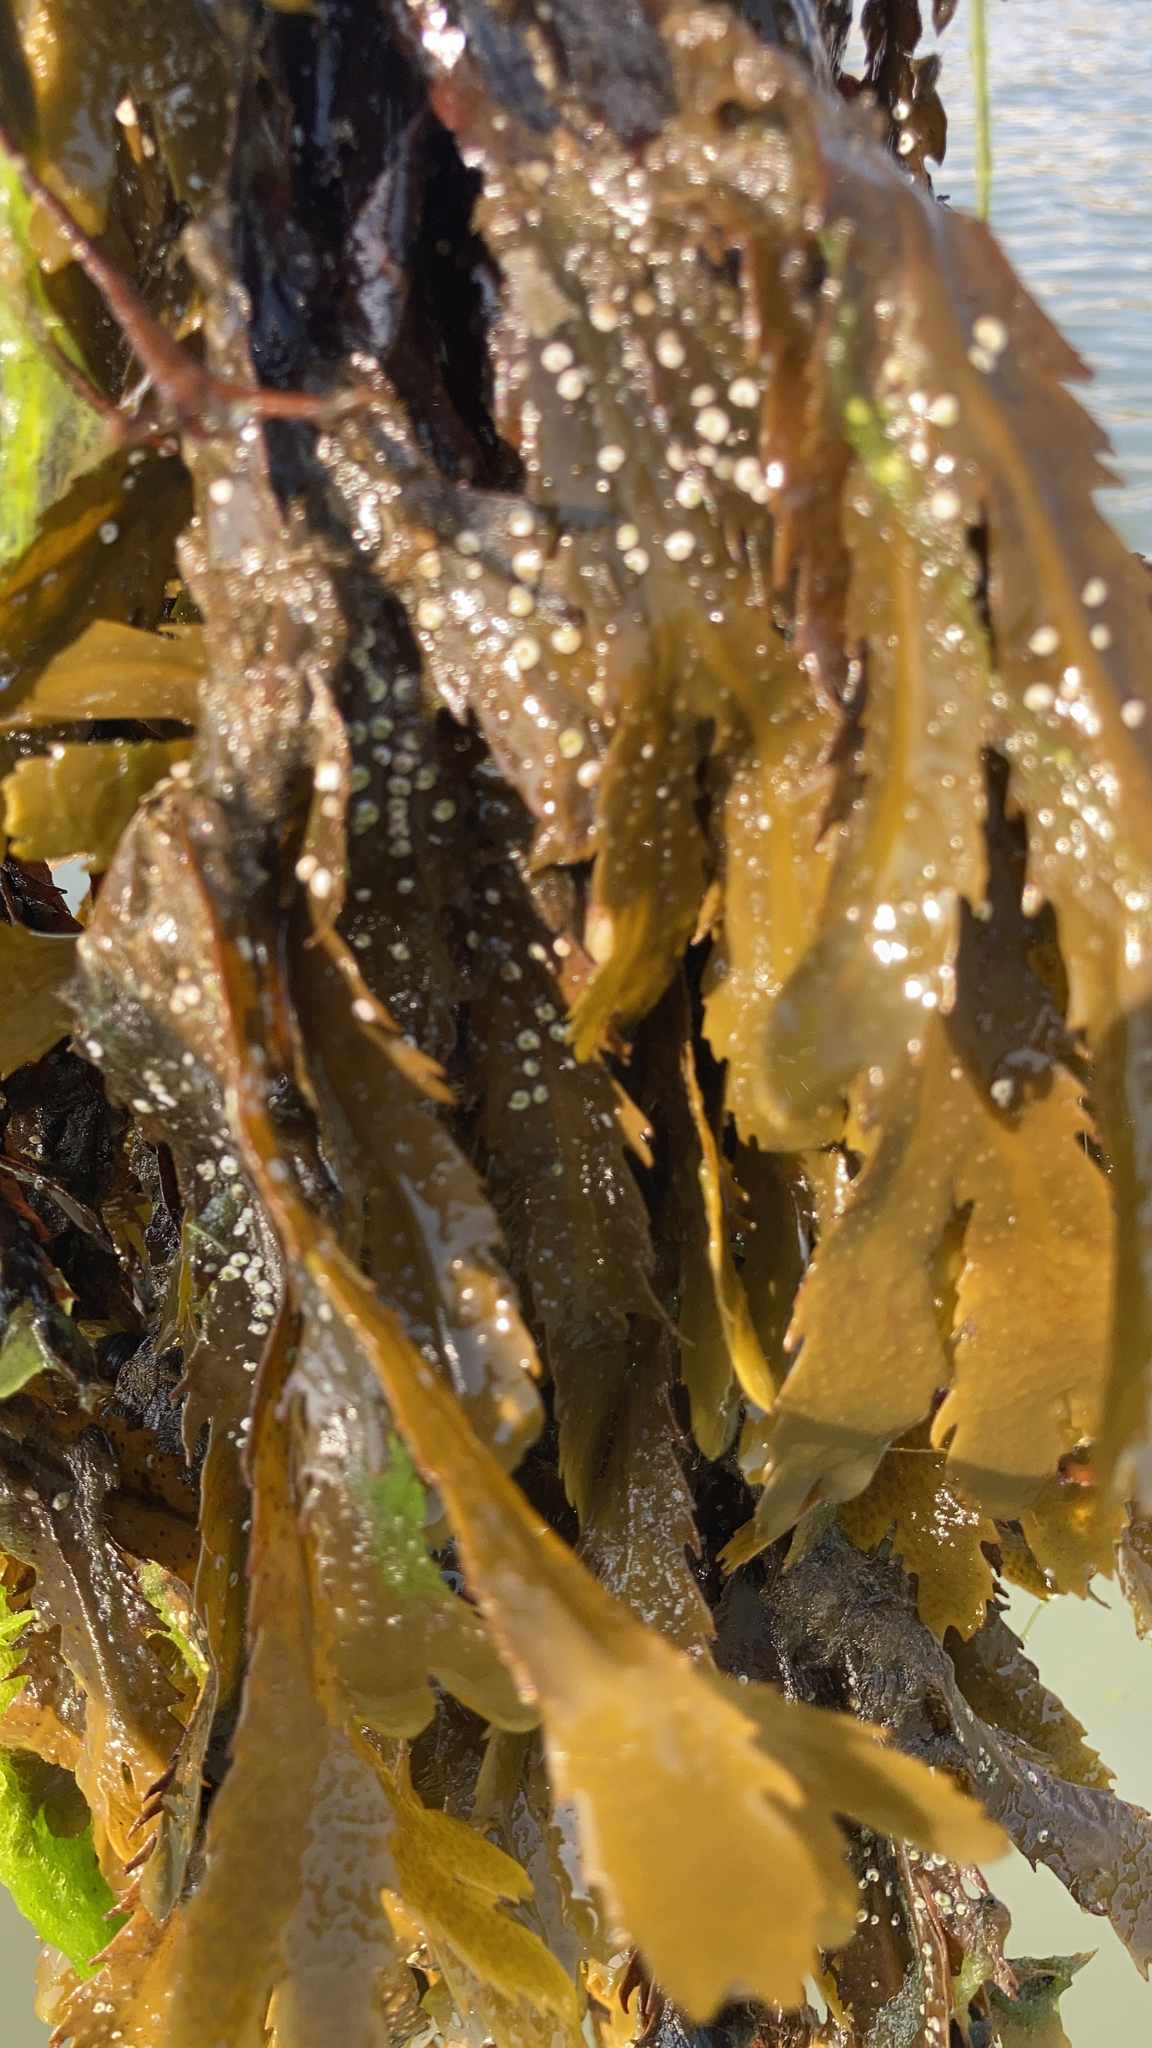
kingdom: Chromista
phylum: Ochrophyta
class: Phaeophyceae
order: Fucales
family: Fucaceae
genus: Fucus
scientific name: Fucus serratus
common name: Toothed wrack
